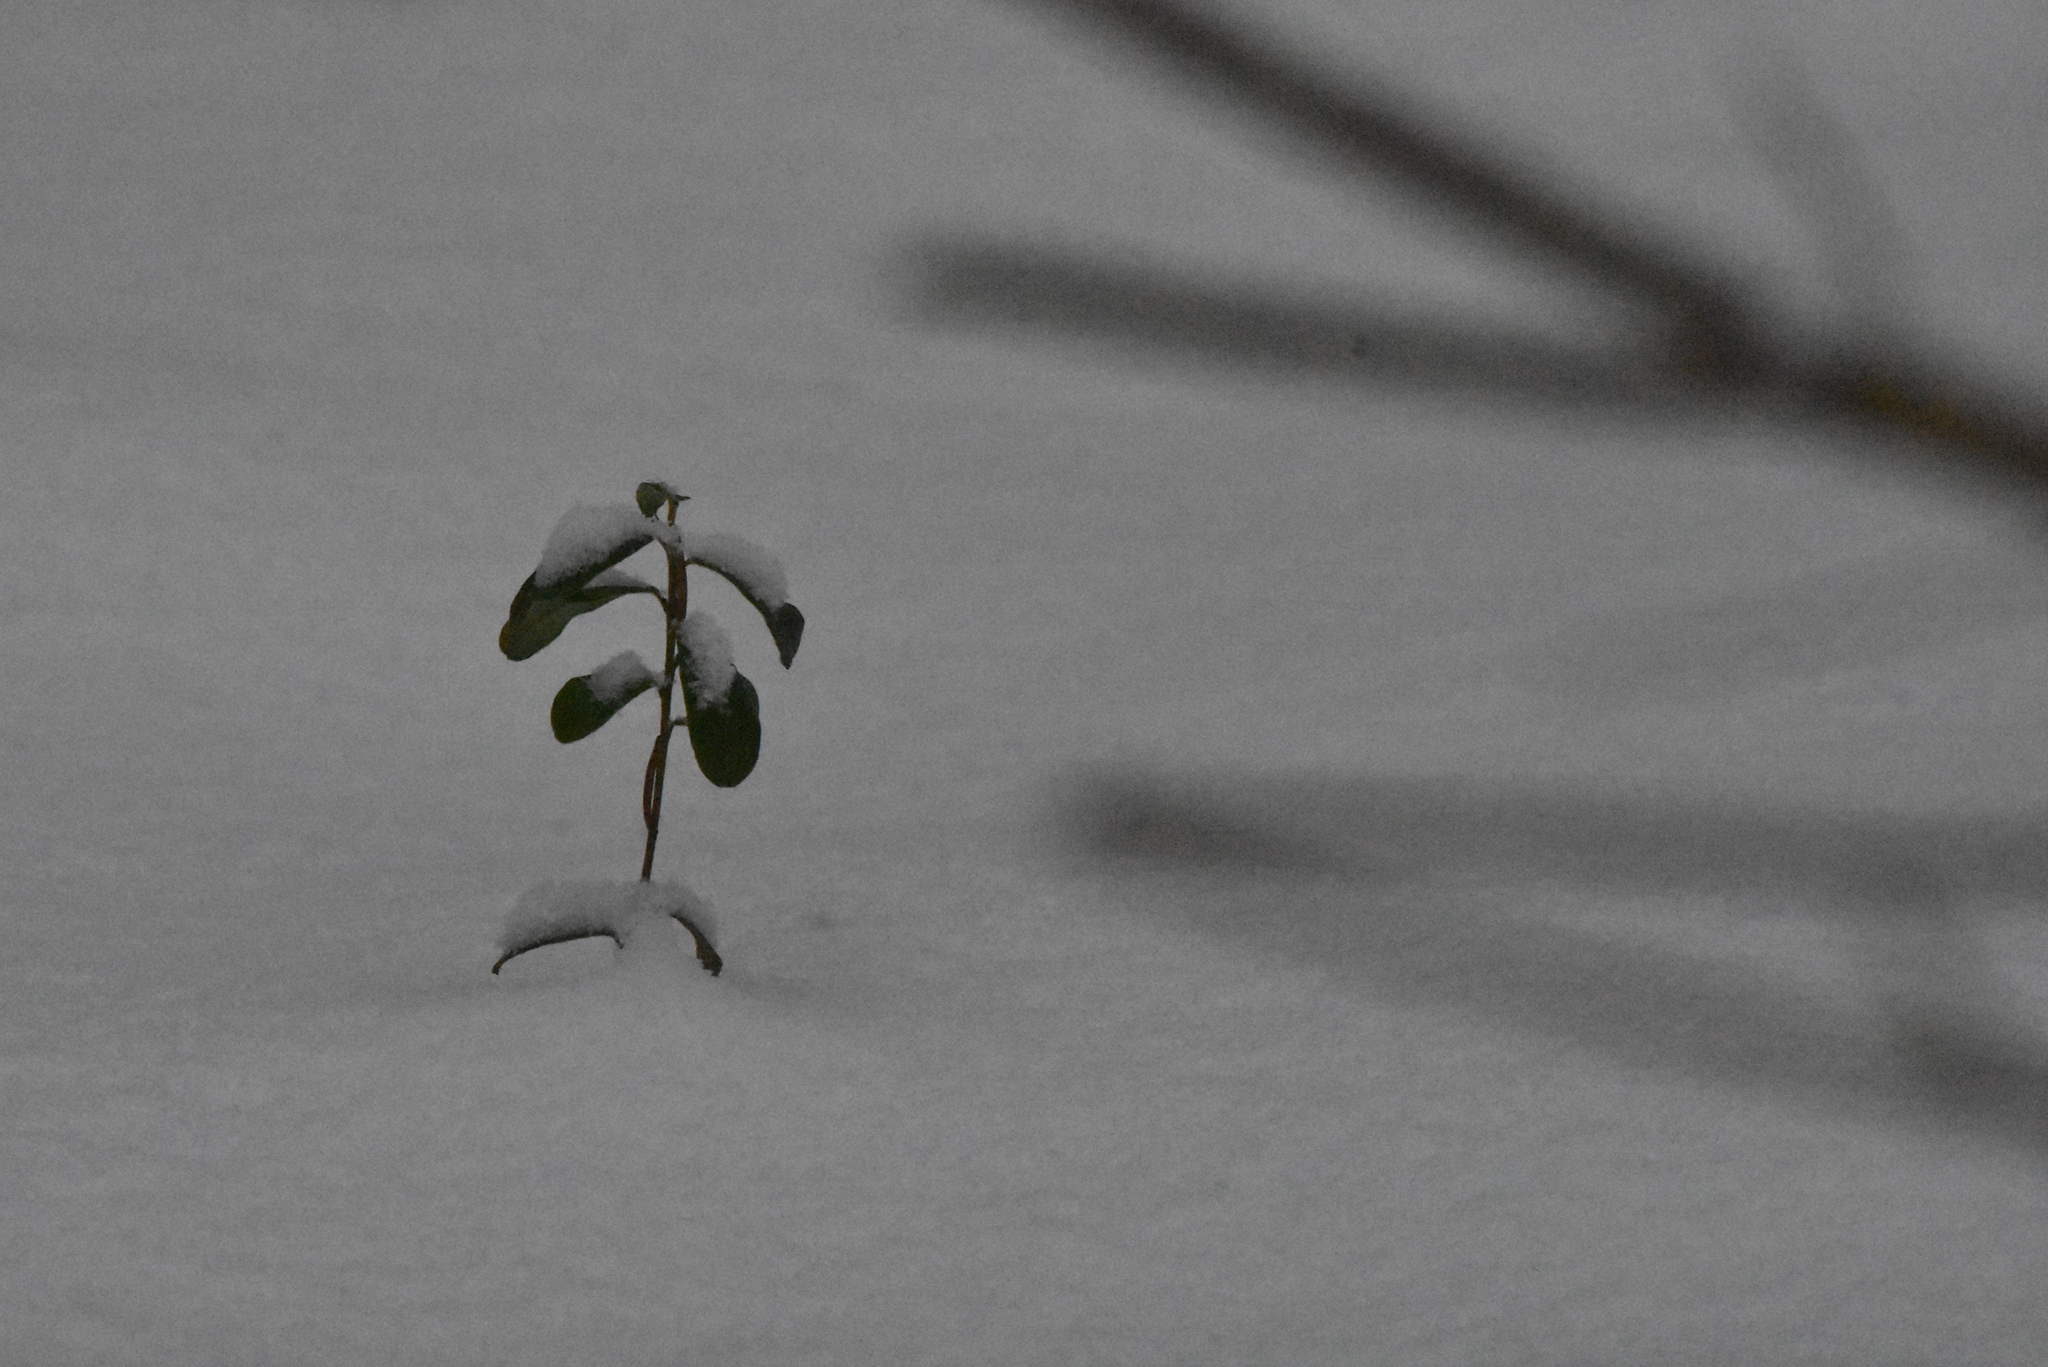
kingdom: Plantae
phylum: Tracheophyta
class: Magnoliopsida
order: Ericales
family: Ericaceae
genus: Vaccinium
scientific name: Vaccinium vitis-idaea
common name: Cowberry
